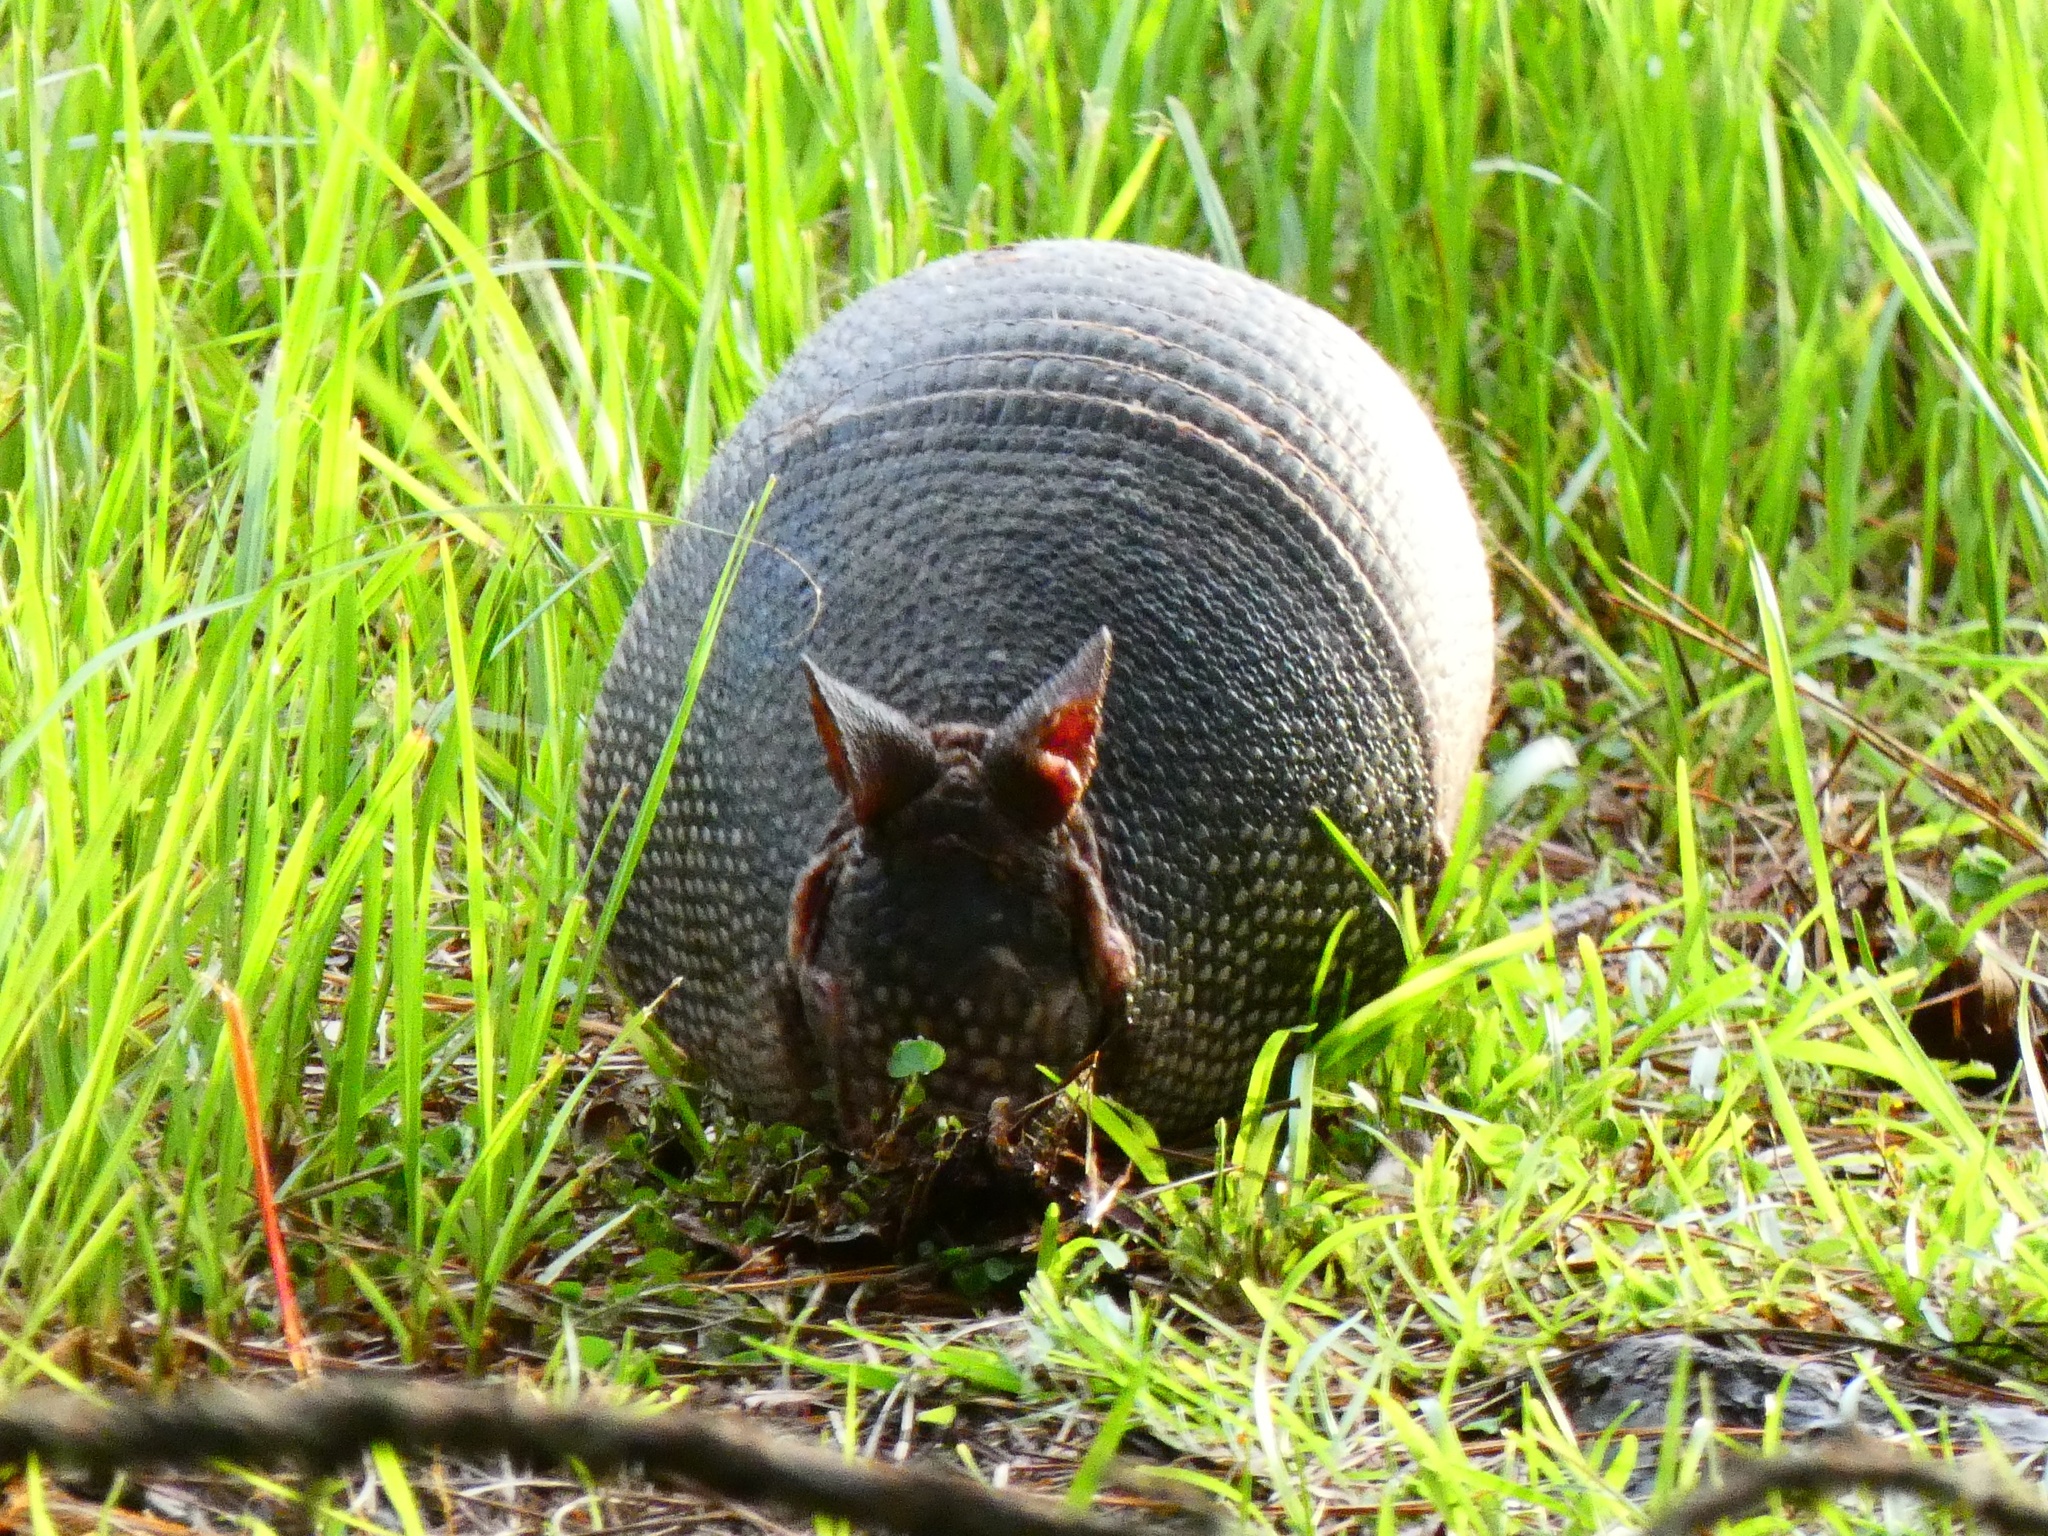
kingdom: Animalia
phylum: Chordata
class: Mammalia
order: Cingulata
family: Dasypodidae
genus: Dasypus
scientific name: Dasypus novemcinctus
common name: Nine-banded armadillo
